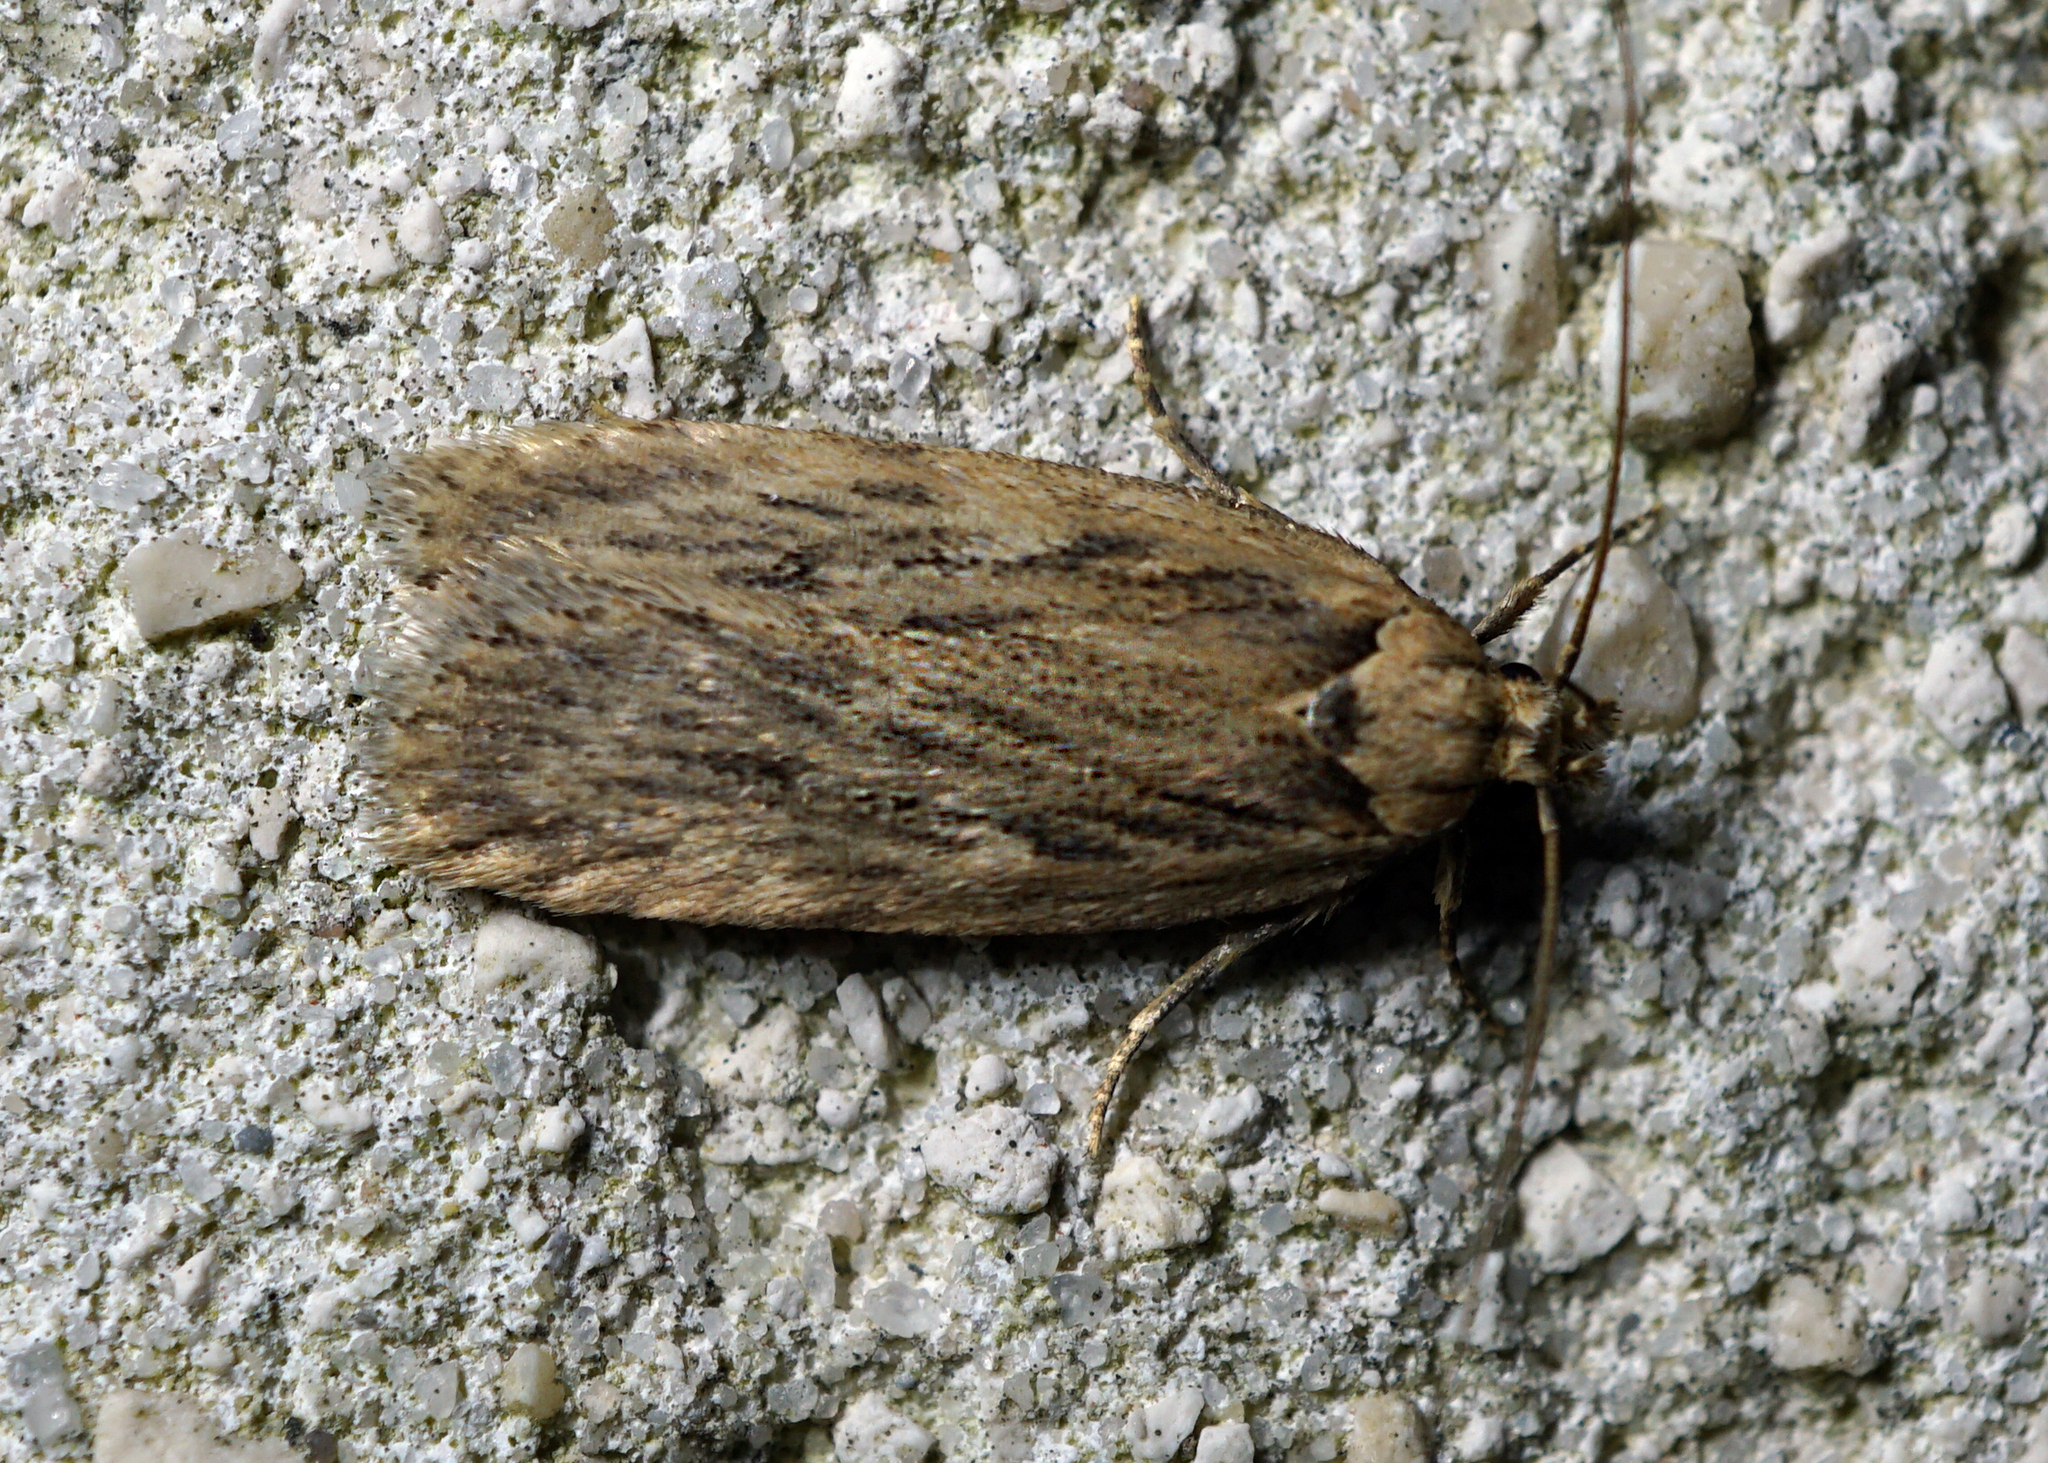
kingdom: Animalia
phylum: Arthropoda
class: Insecta
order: Lepidoptera
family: Depressariidae
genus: Depressaria
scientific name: Depressaria radiella
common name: Parsnip moth
